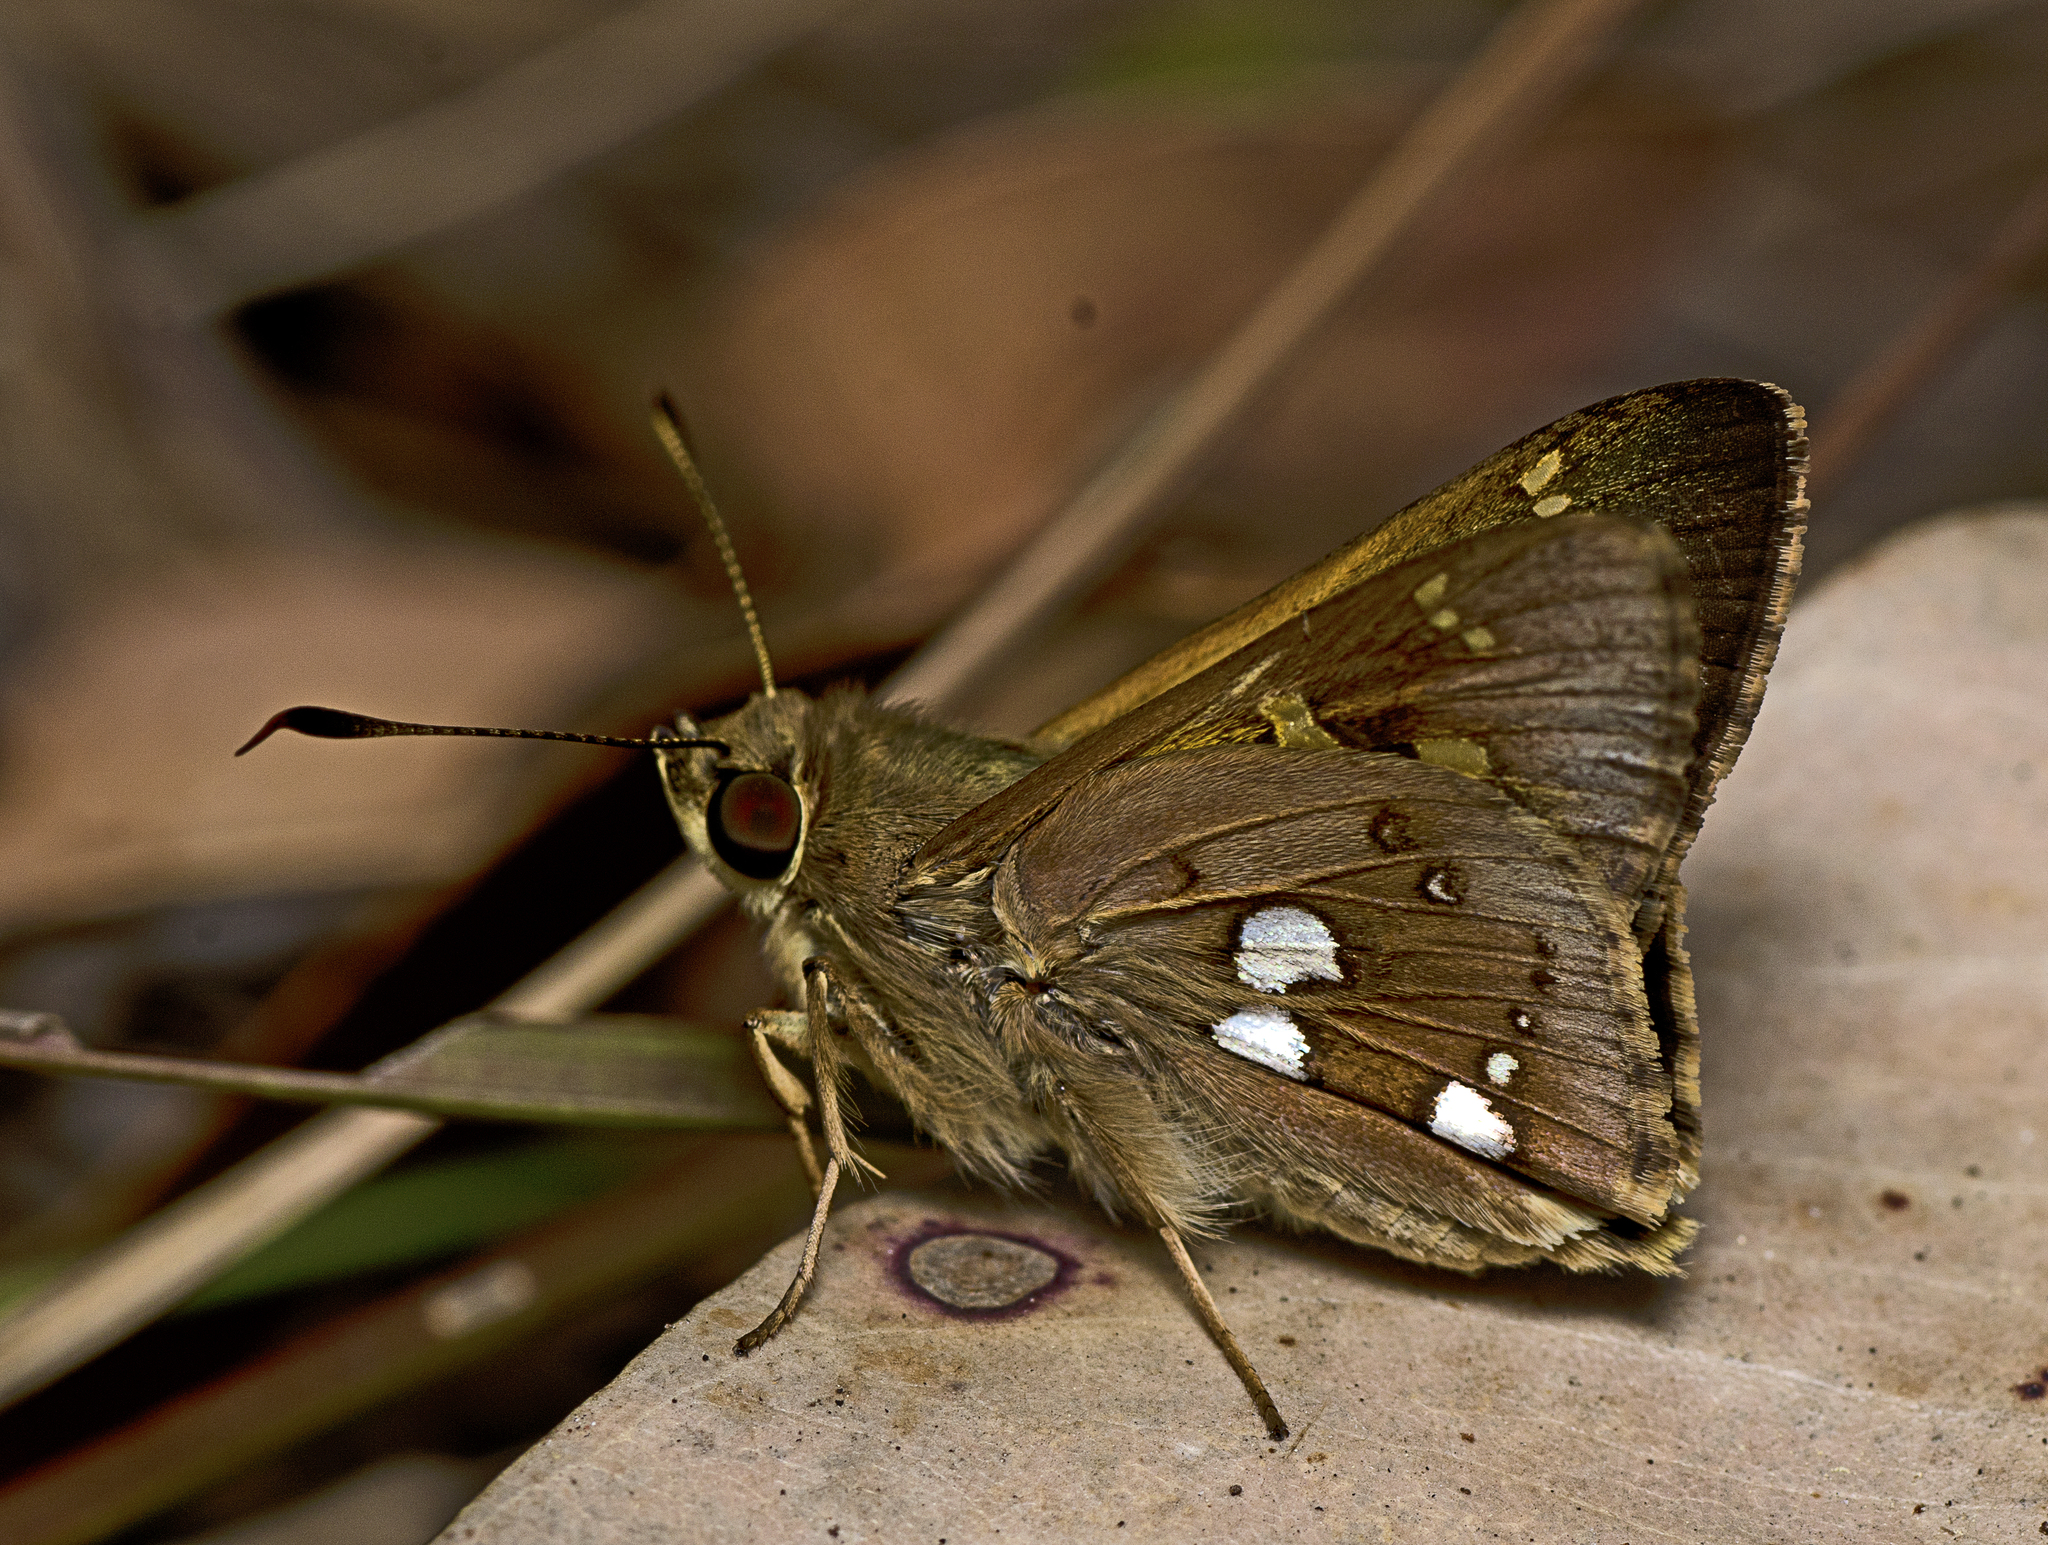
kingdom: Animalia
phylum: Arthropoda
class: Insecta
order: Lepidoptera
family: Hesperiidae
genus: Trapezites
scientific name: Trapezites maheta
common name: Northern silver ochre
